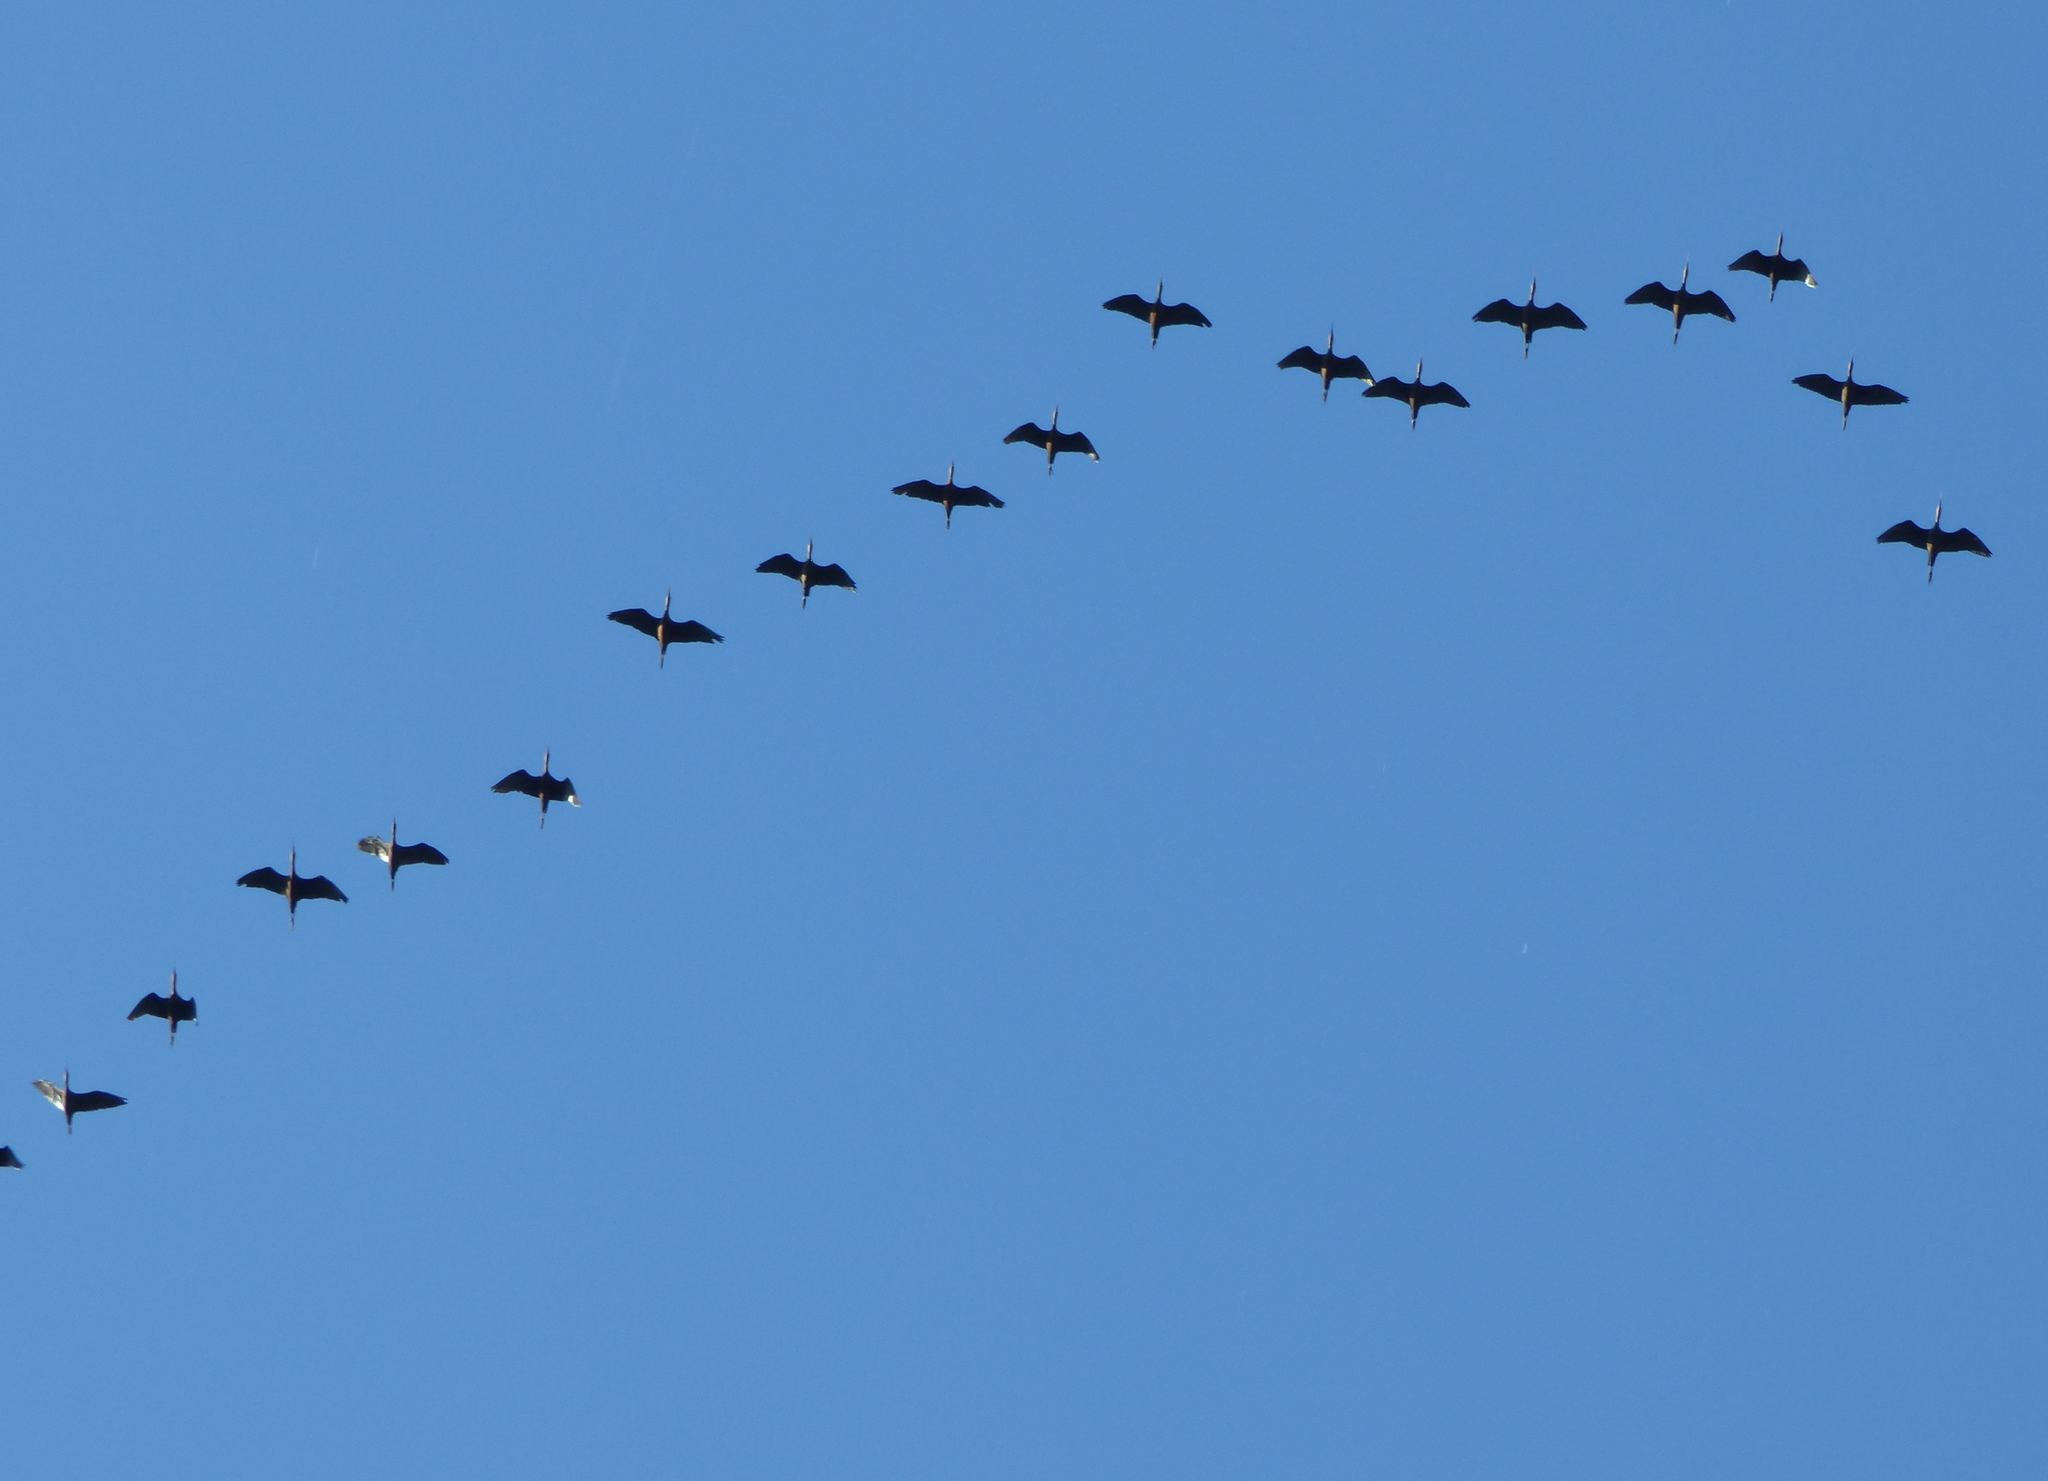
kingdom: Animalia
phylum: Chordata
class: Aves
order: Pelecaniformes
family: Threskiornithidae
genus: Plegadis
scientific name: Plegadis chihi
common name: White-faced ibis
